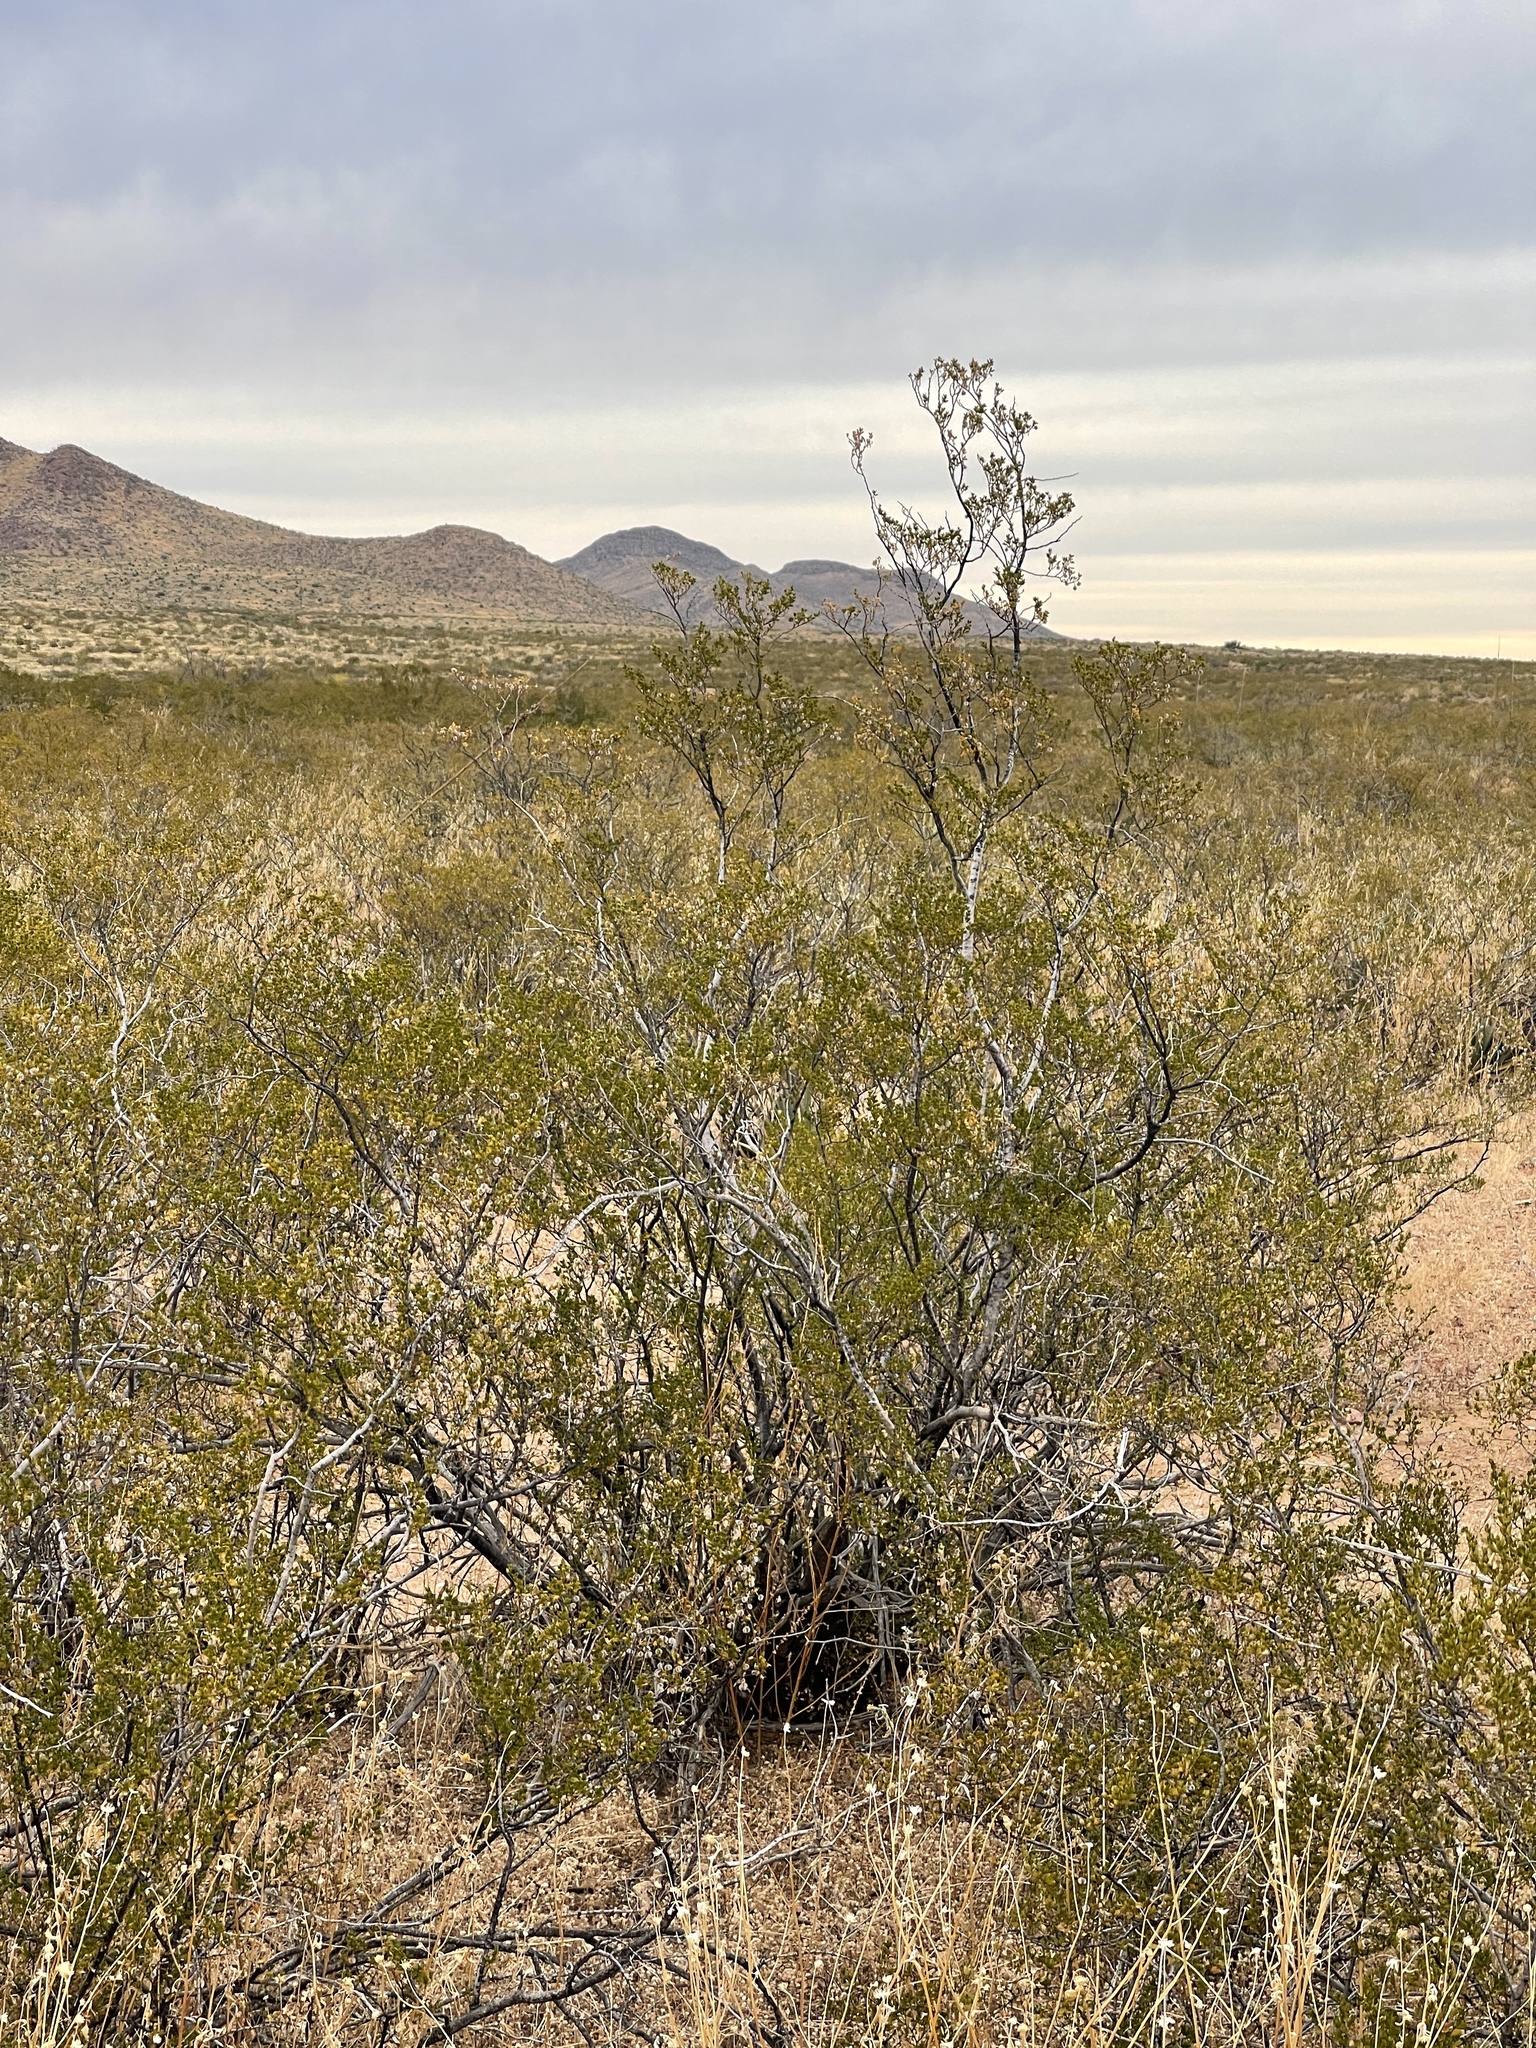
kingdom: Plantae
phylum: Tracheophyta
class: Magnoliopsida
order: Zygophyllales
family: Zygophyllaceae
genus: Larrea
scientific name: Larrea tridentata
